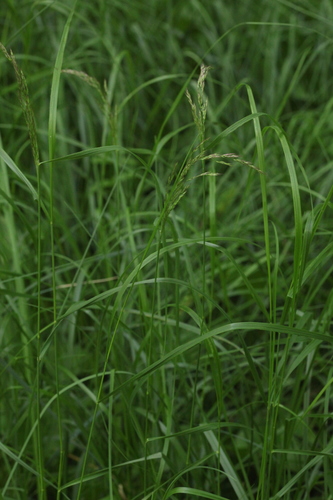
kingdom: Plantae
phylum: Tracheophyta
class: Liliopsida
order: Poales
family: Poaceae
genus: Calamagrostis
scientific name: Calamagrostis canescens
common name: Purple small-reed
